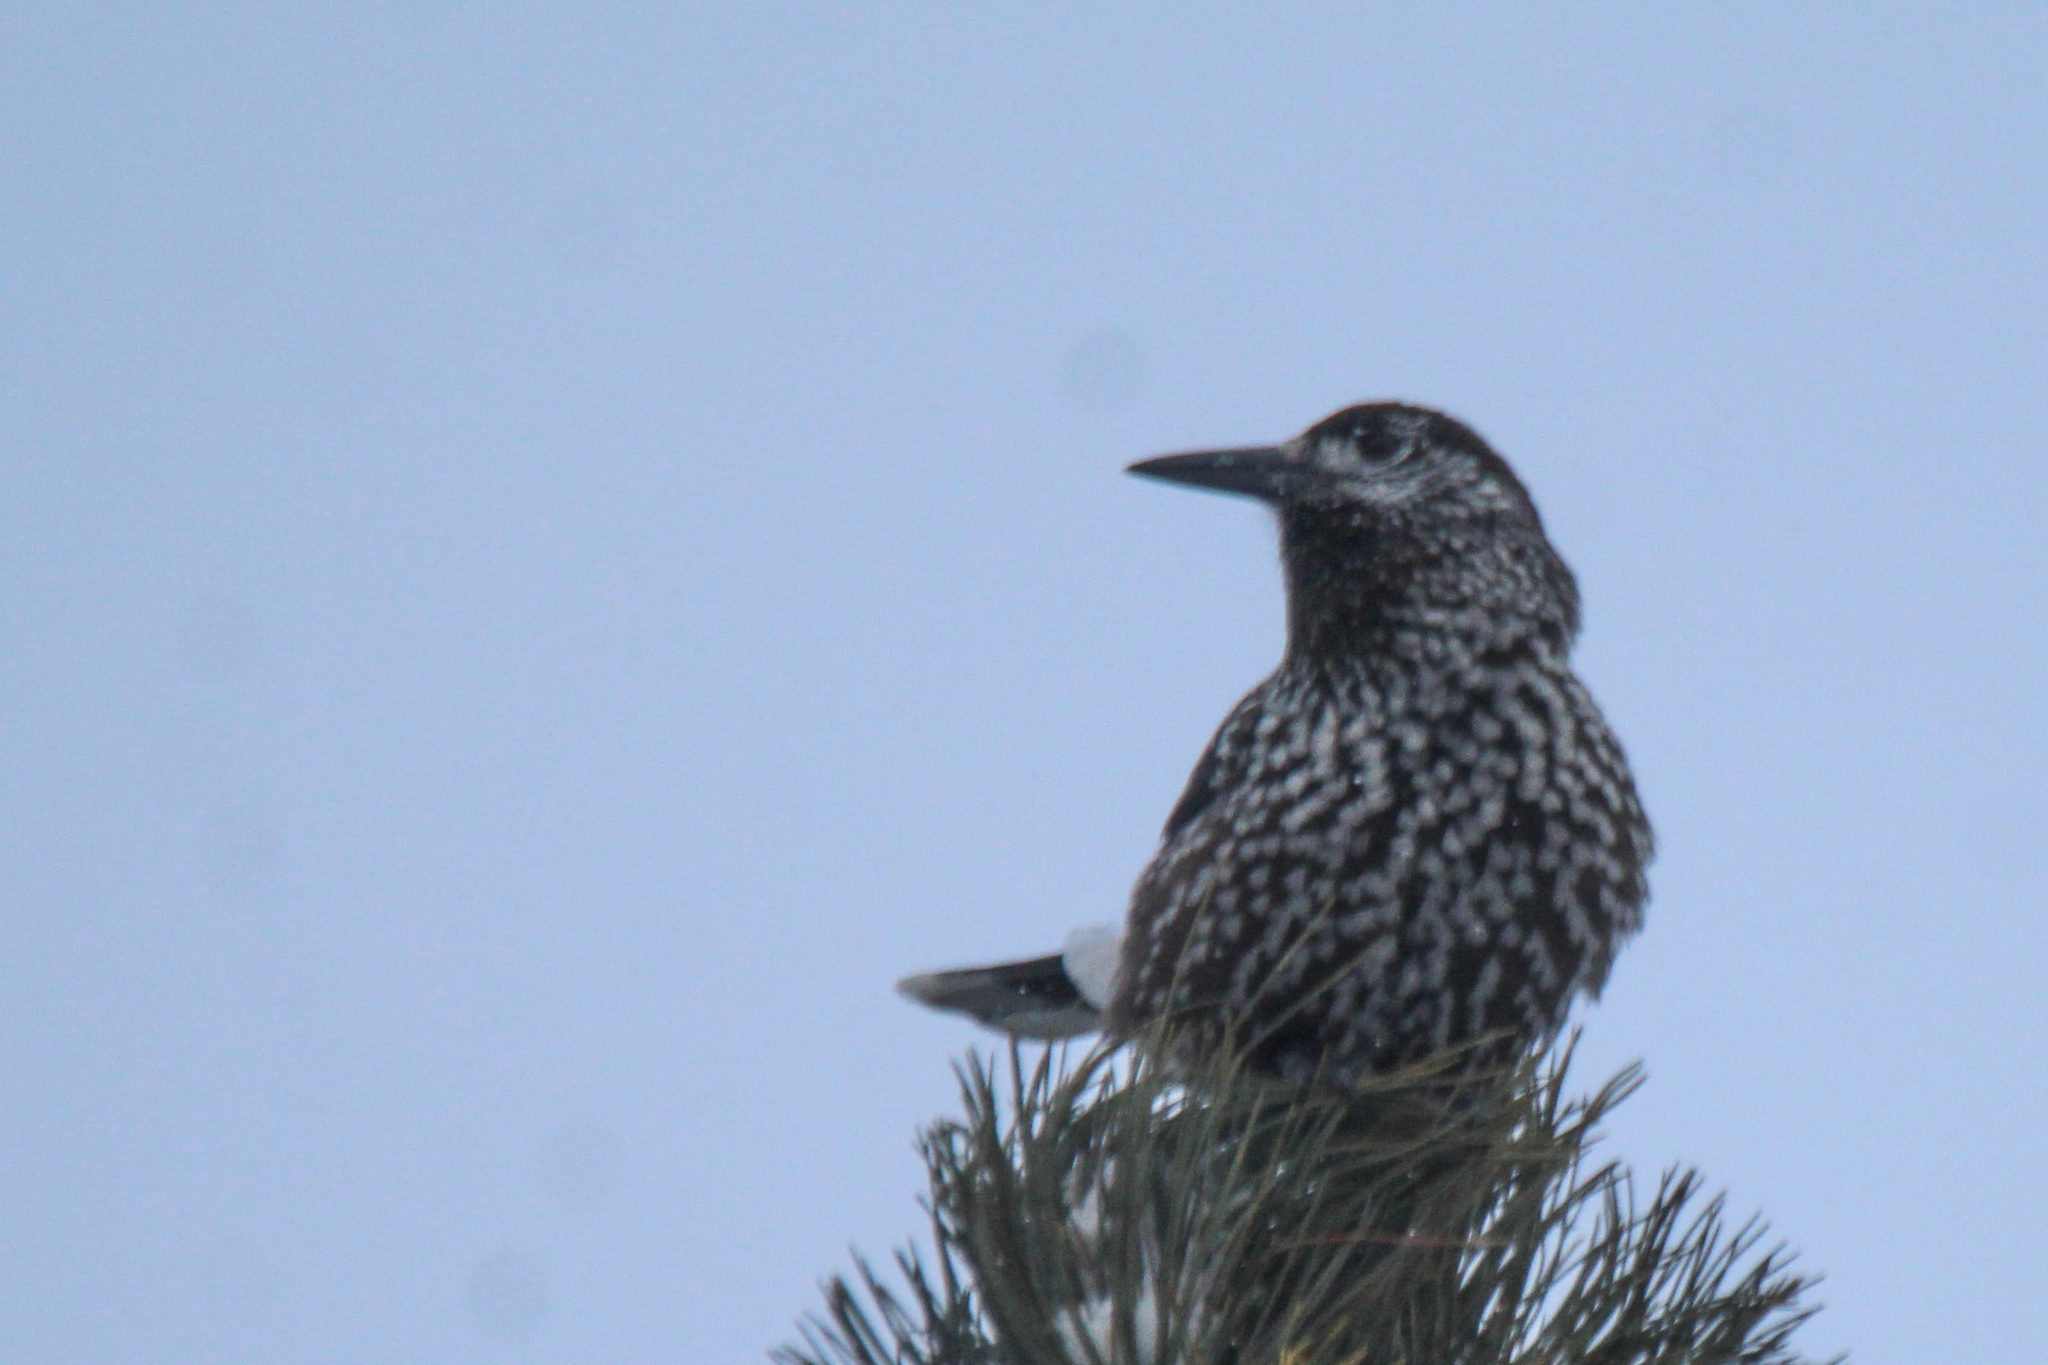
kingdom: Animalia
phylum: Chordata
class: Aves
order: Passeriformes
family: Corvidae
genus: Nucifraga
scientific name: Nucifraga caryocatactes
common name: Spotted nutcracker
